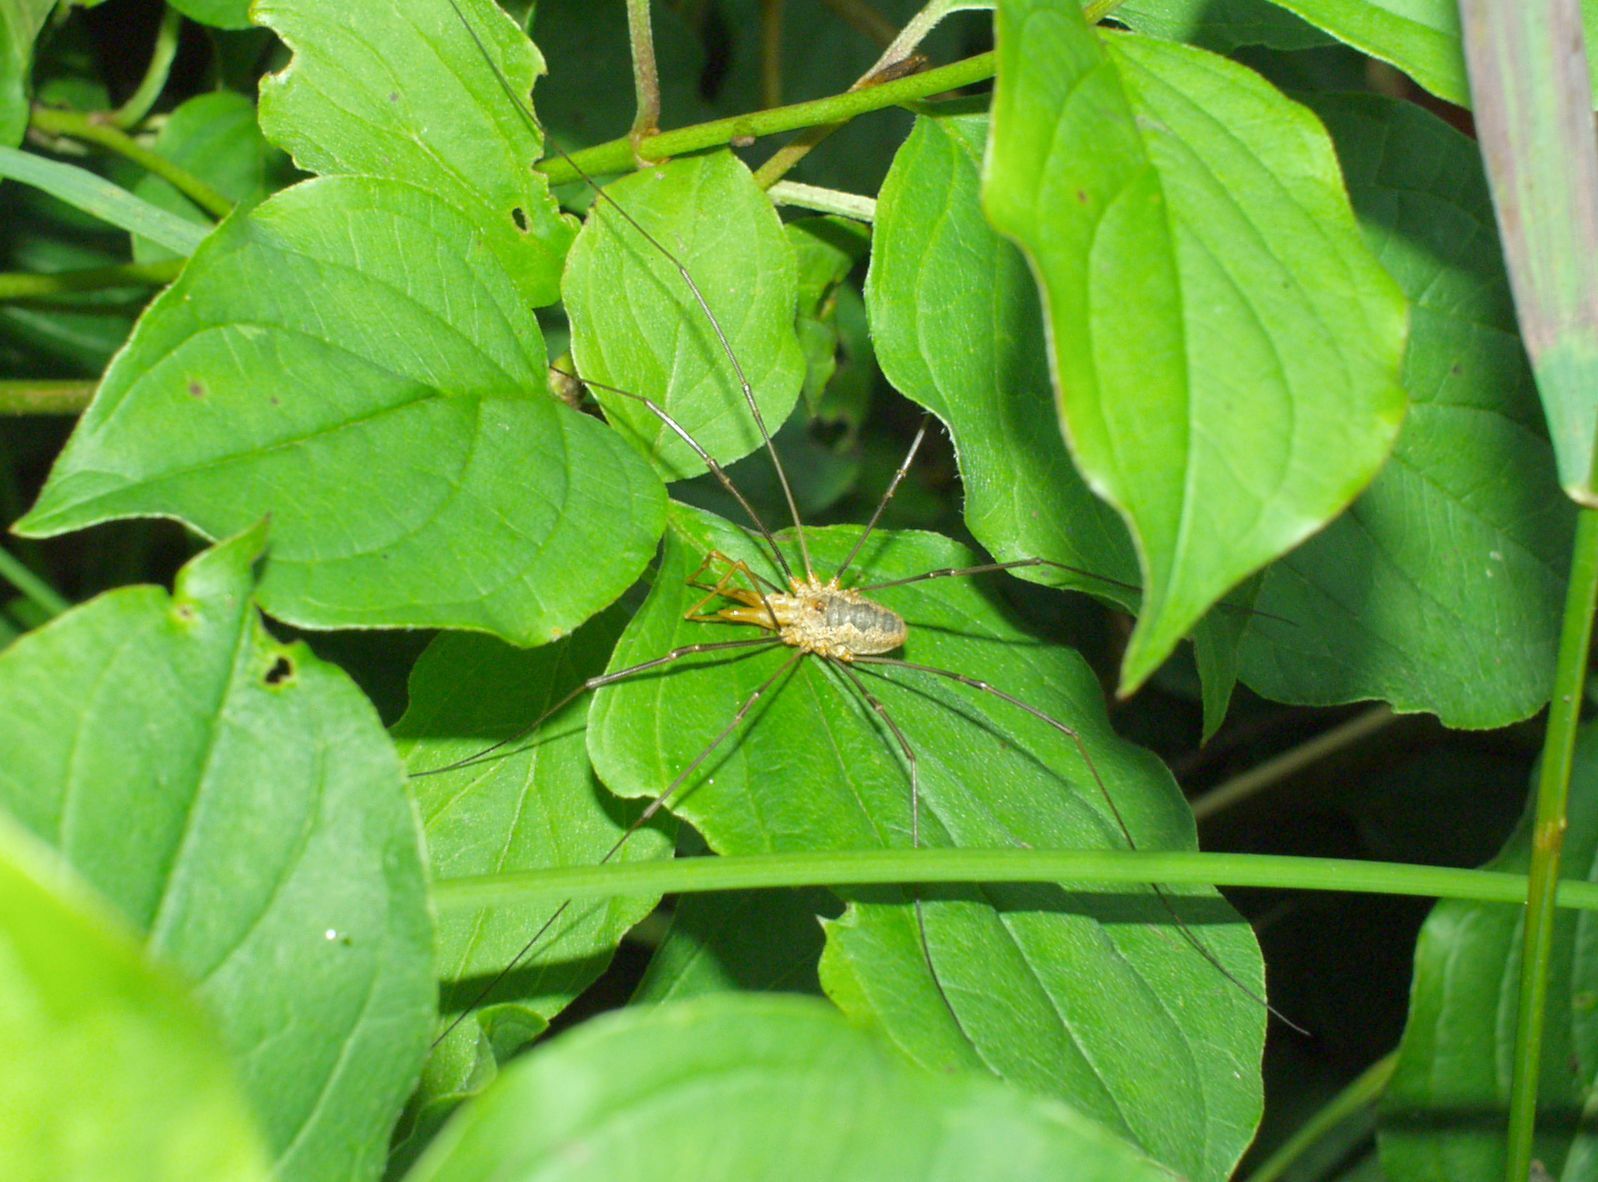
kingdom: Animalia
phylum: Arthropoda
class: Arachnida
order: Opiliones
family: Phalangiidae
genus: Phalangium
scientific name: Phalangium opilio
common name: Daddy longleg
